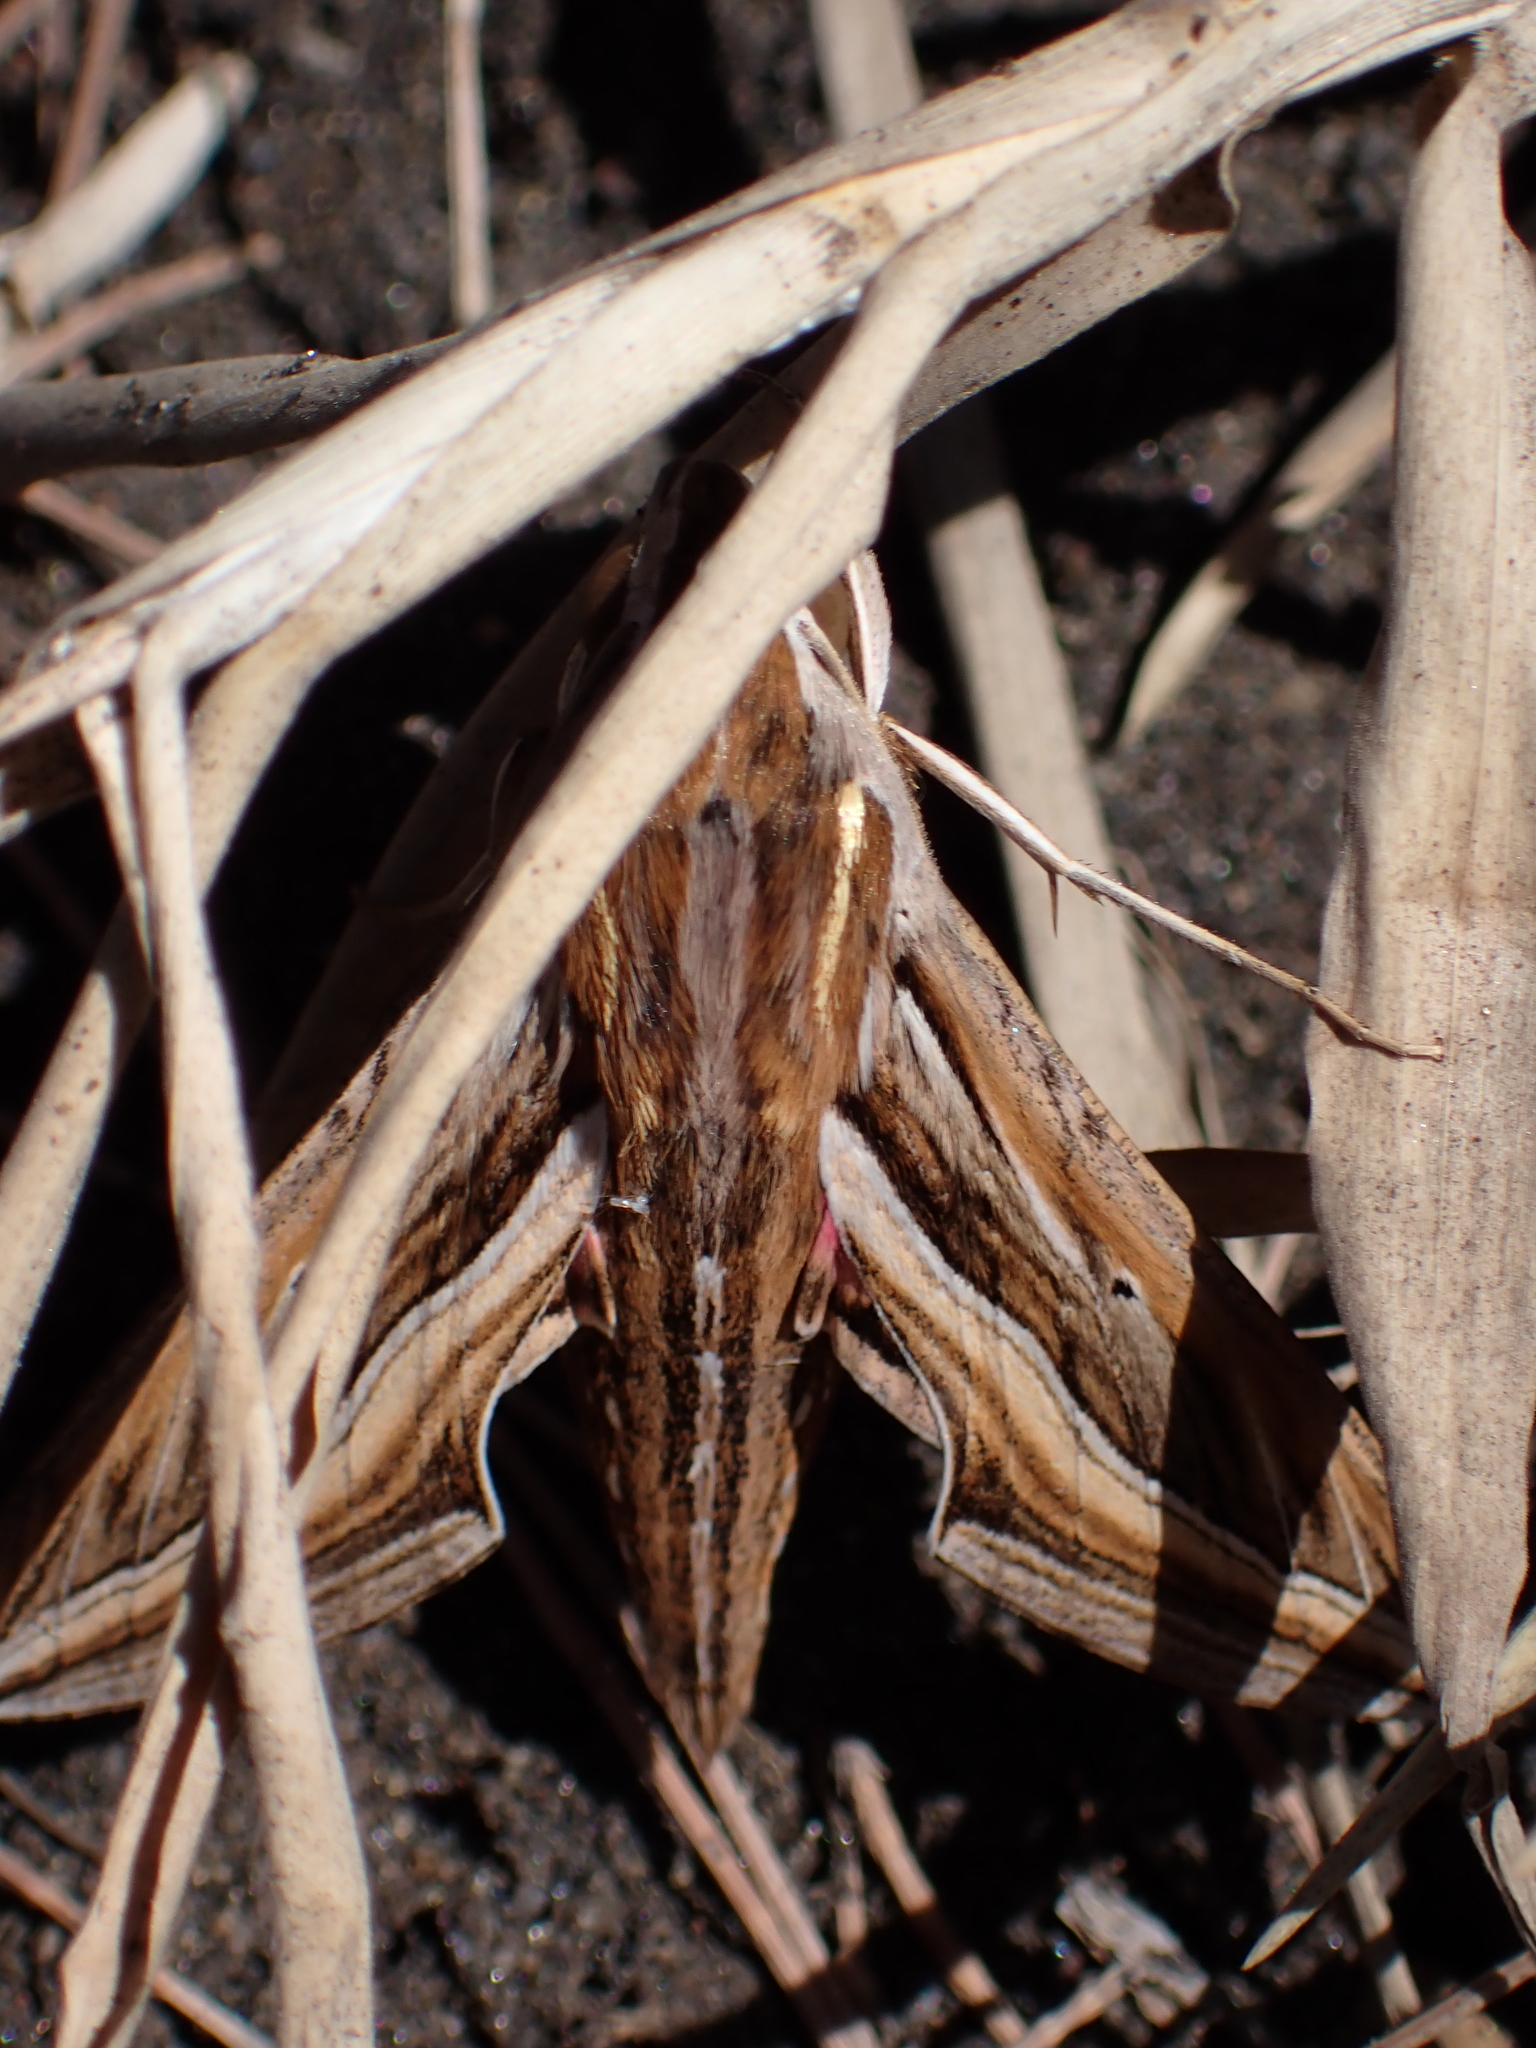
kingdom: Animalia
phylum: Arthropoda
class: Insecta
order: Lepidoptera
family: Sphingidae
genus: Hippotion
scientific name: Hippotion celerio
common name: Silver-striped hawk-moth
